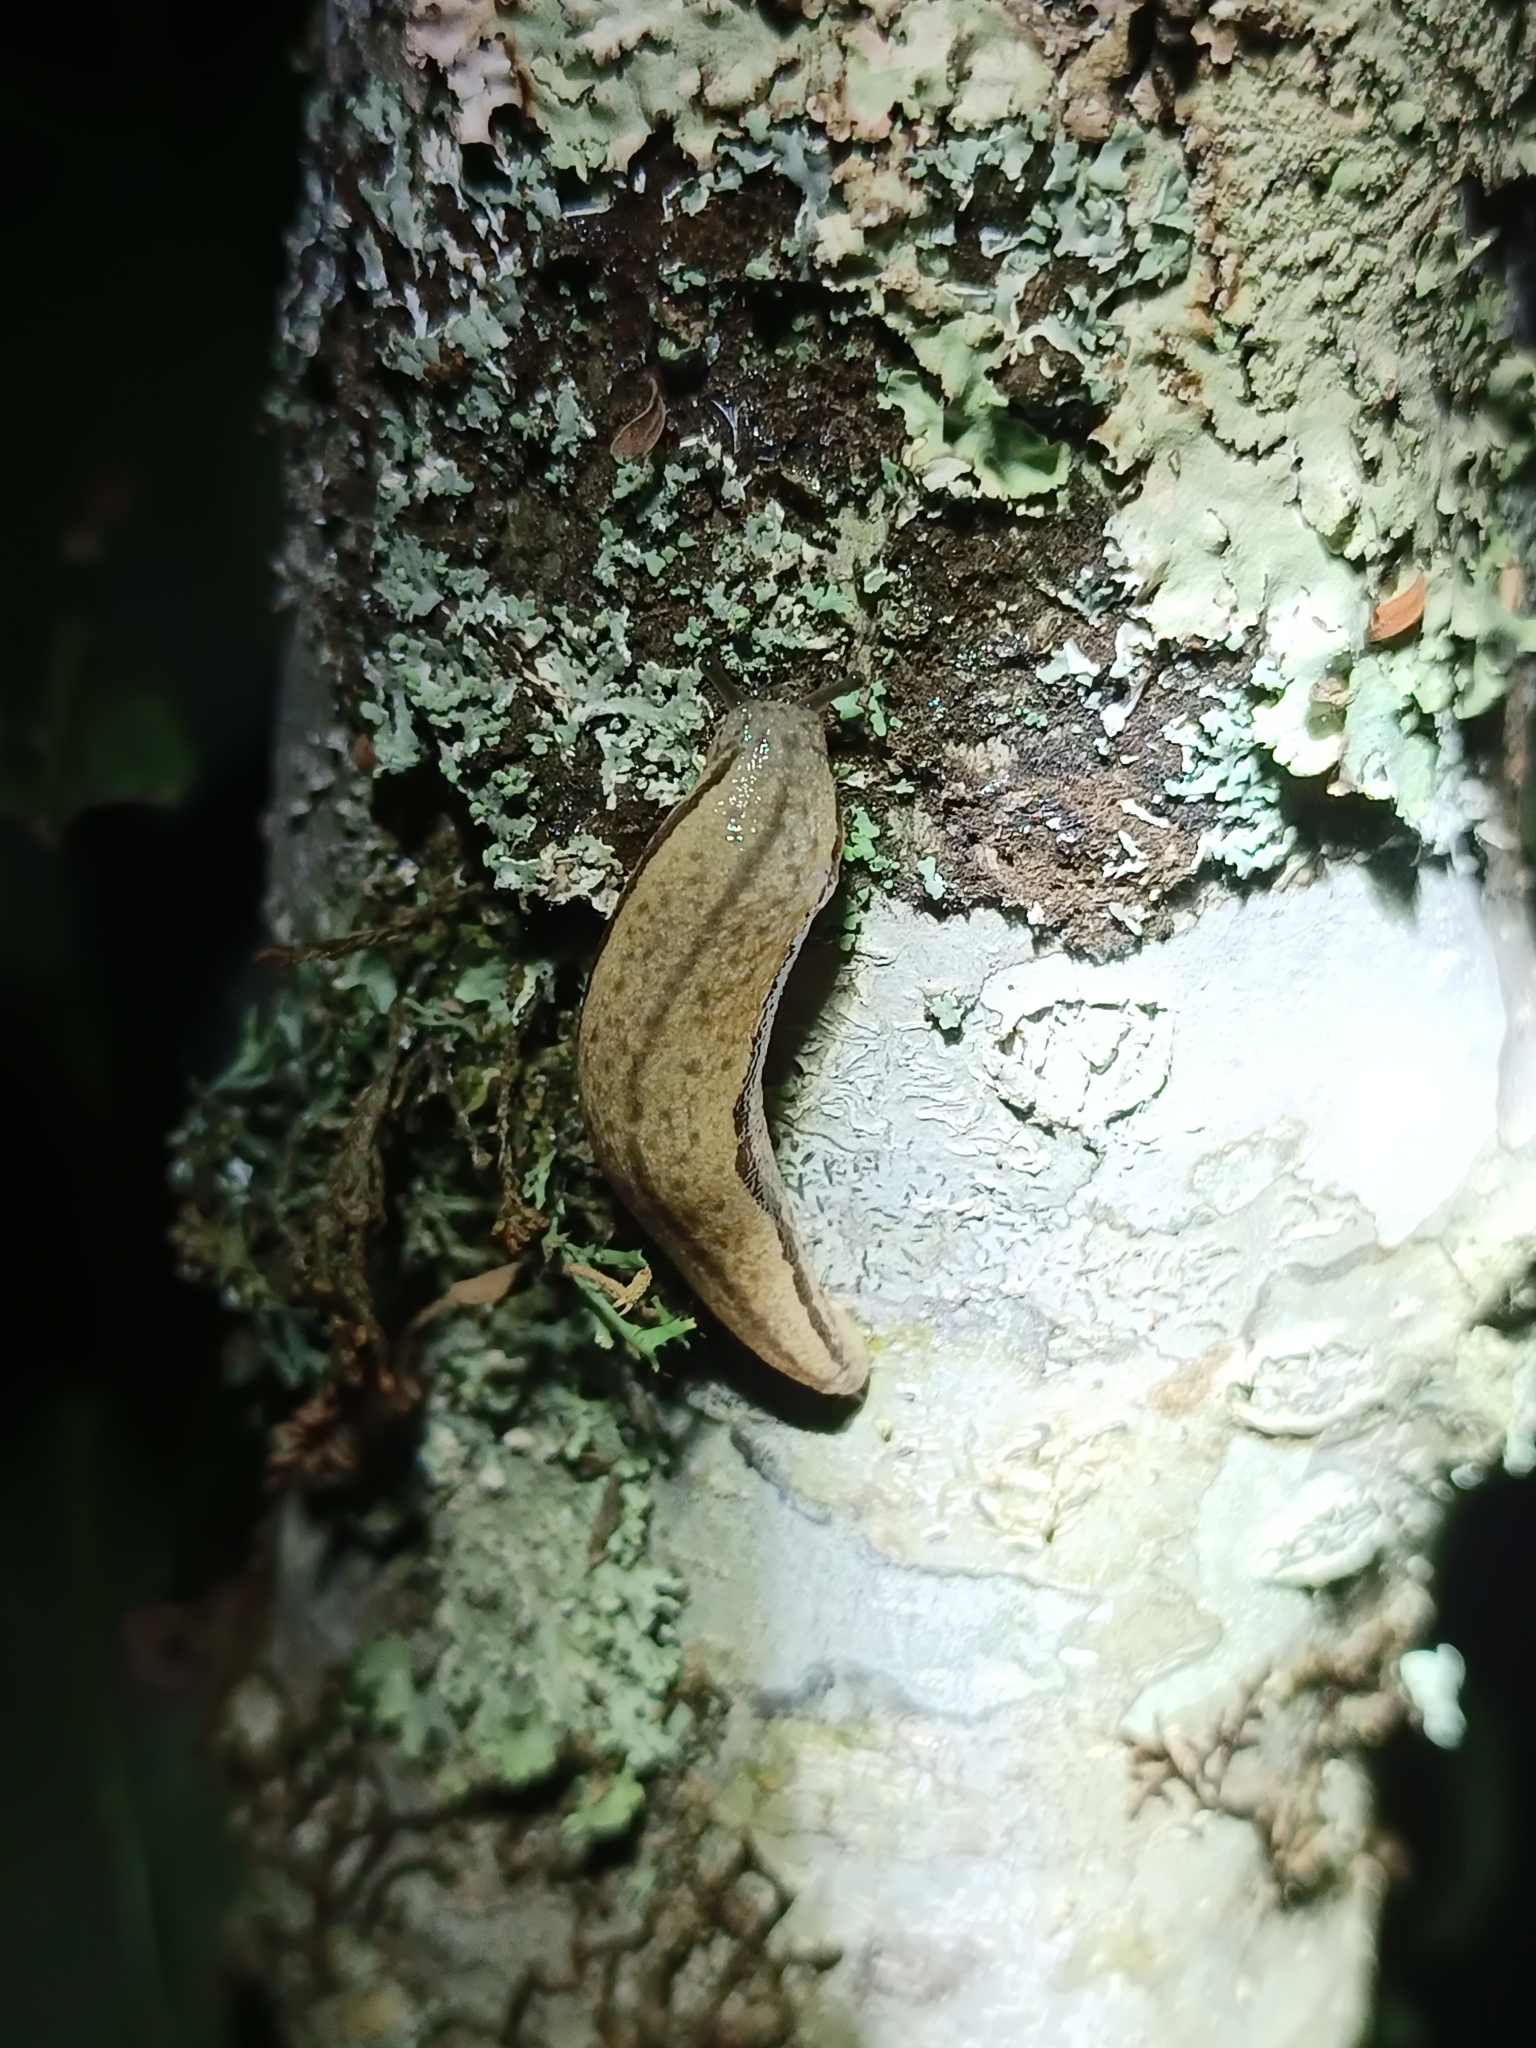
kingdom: Animalia
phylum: Mollusca
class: Gastropoda
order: Stylommatophora
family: Philomycidae
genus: Meghimatium
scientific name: Meghimatium pictum
